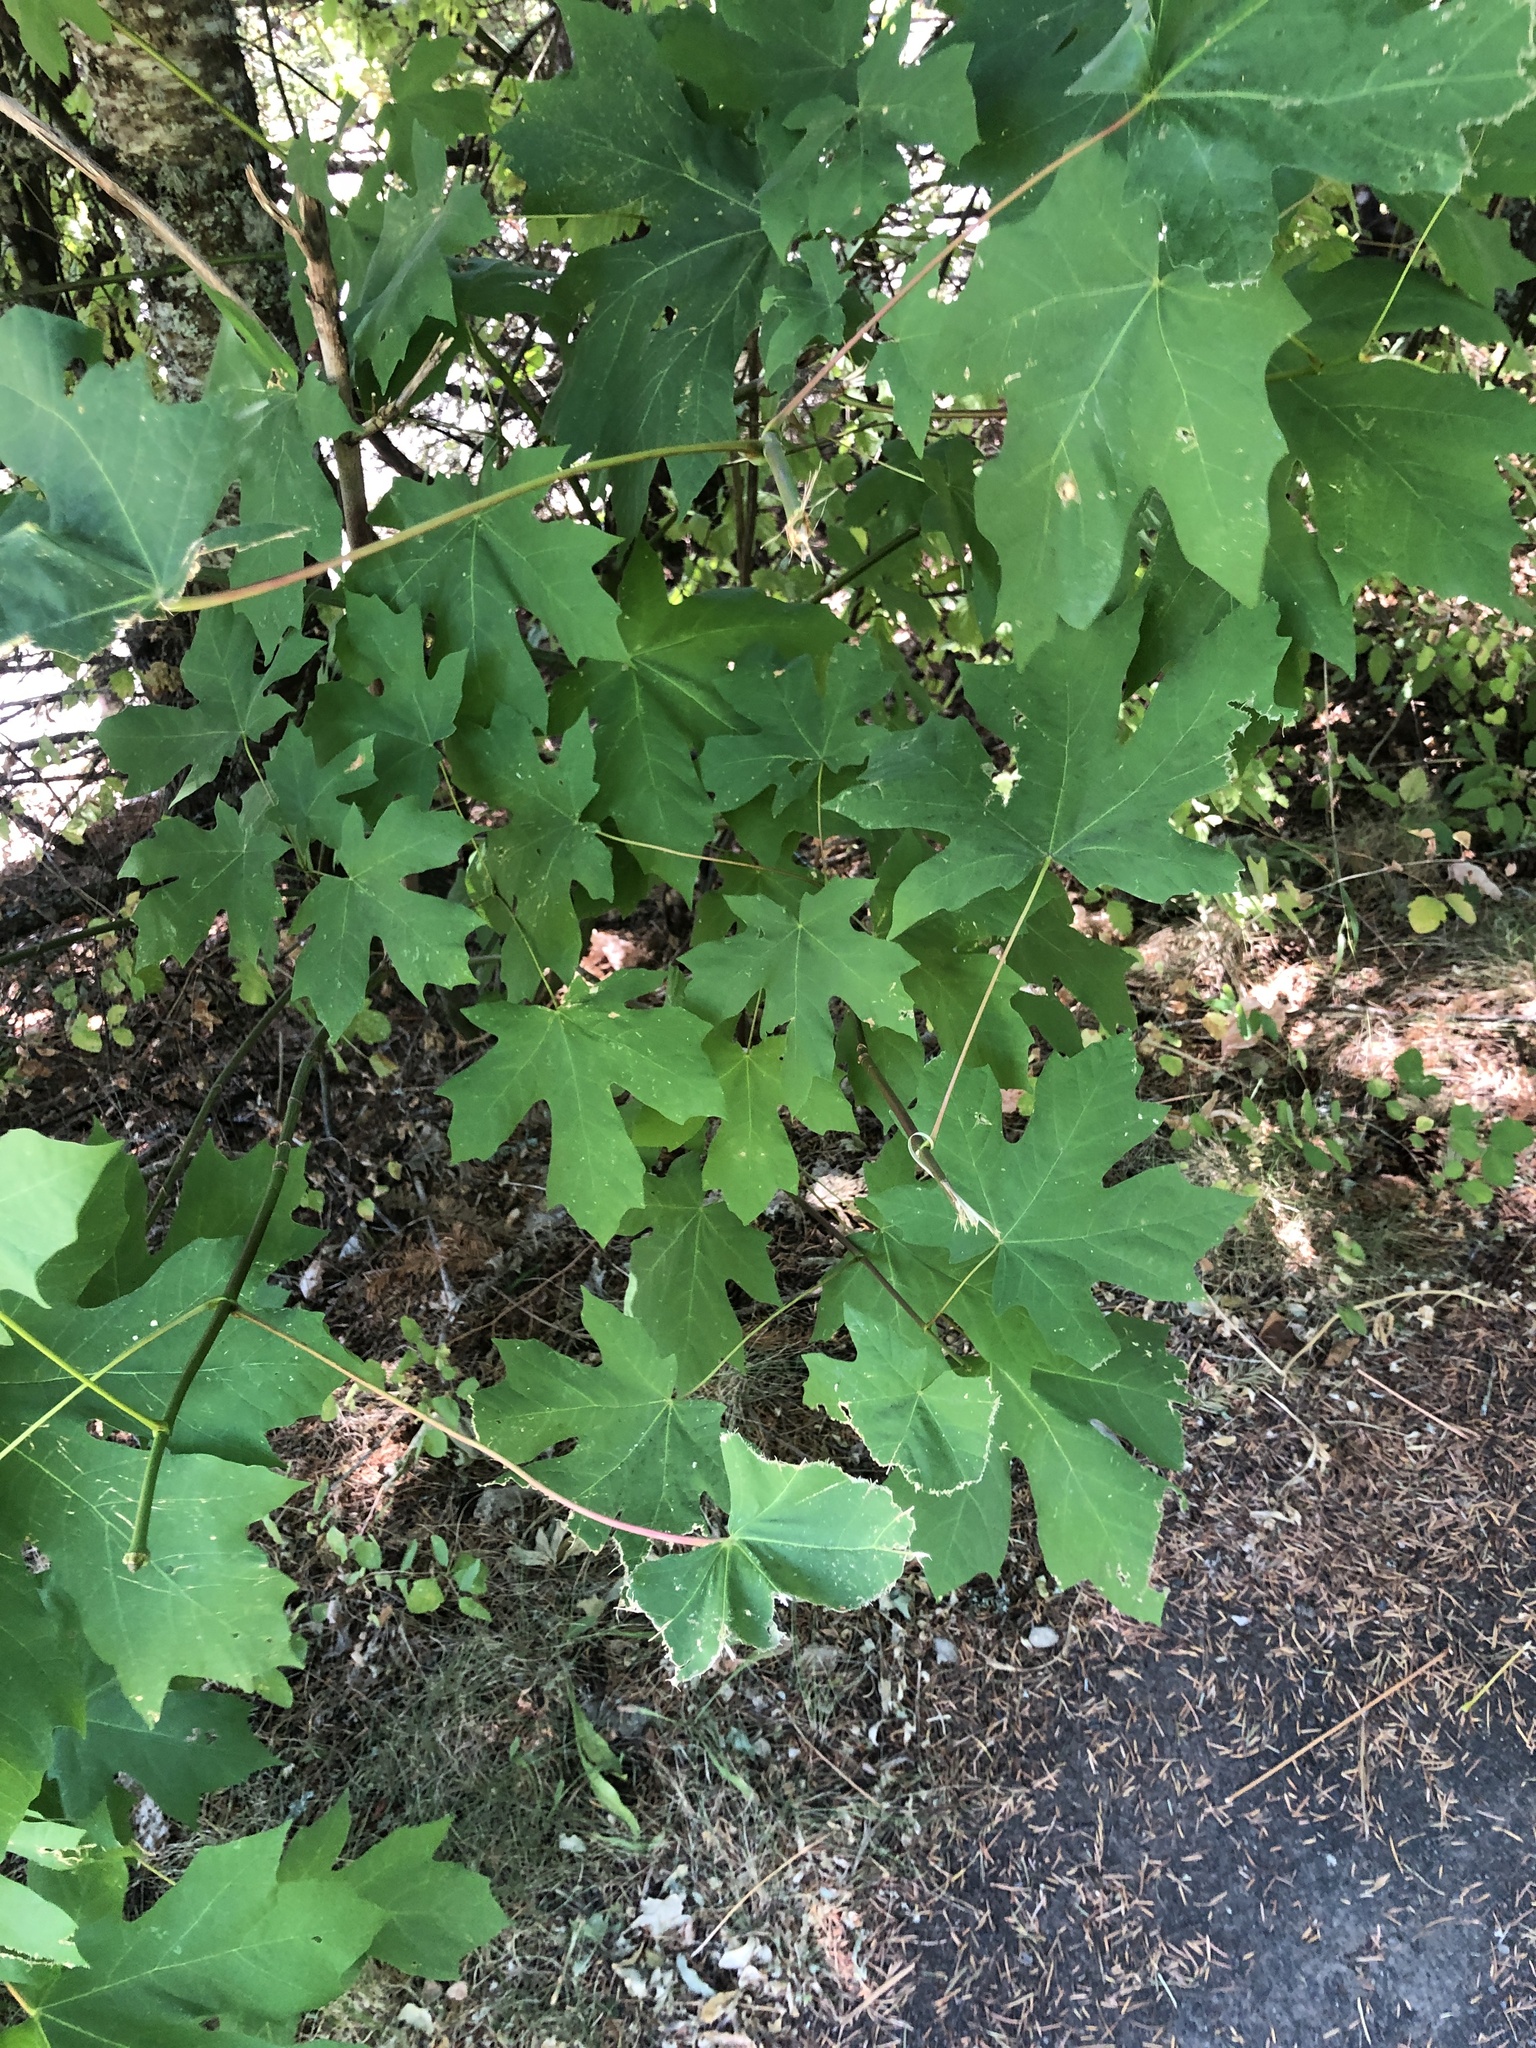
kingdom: Plantae
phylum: Tracheophyta
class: Magnoliopsida
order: Sapindales
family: Sapindaceae
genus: Acer
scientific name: Acer macrophyllum
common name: Oregon maple
